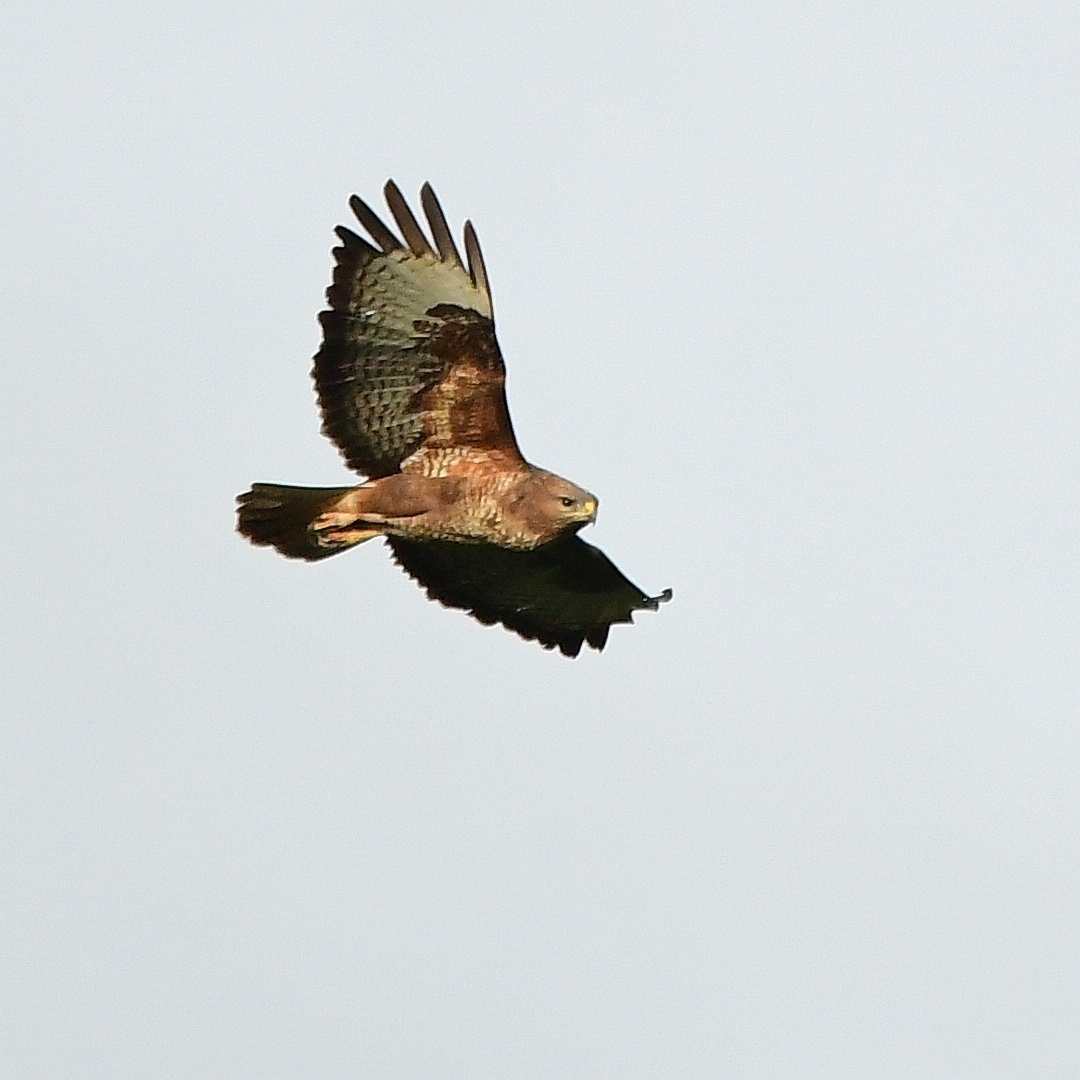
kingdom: Animalia
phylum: Chordata
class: Aves
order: Accipitriformes
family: Accipitridae
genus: Buteo
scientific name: Buteo buteo
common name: Common buzzard
